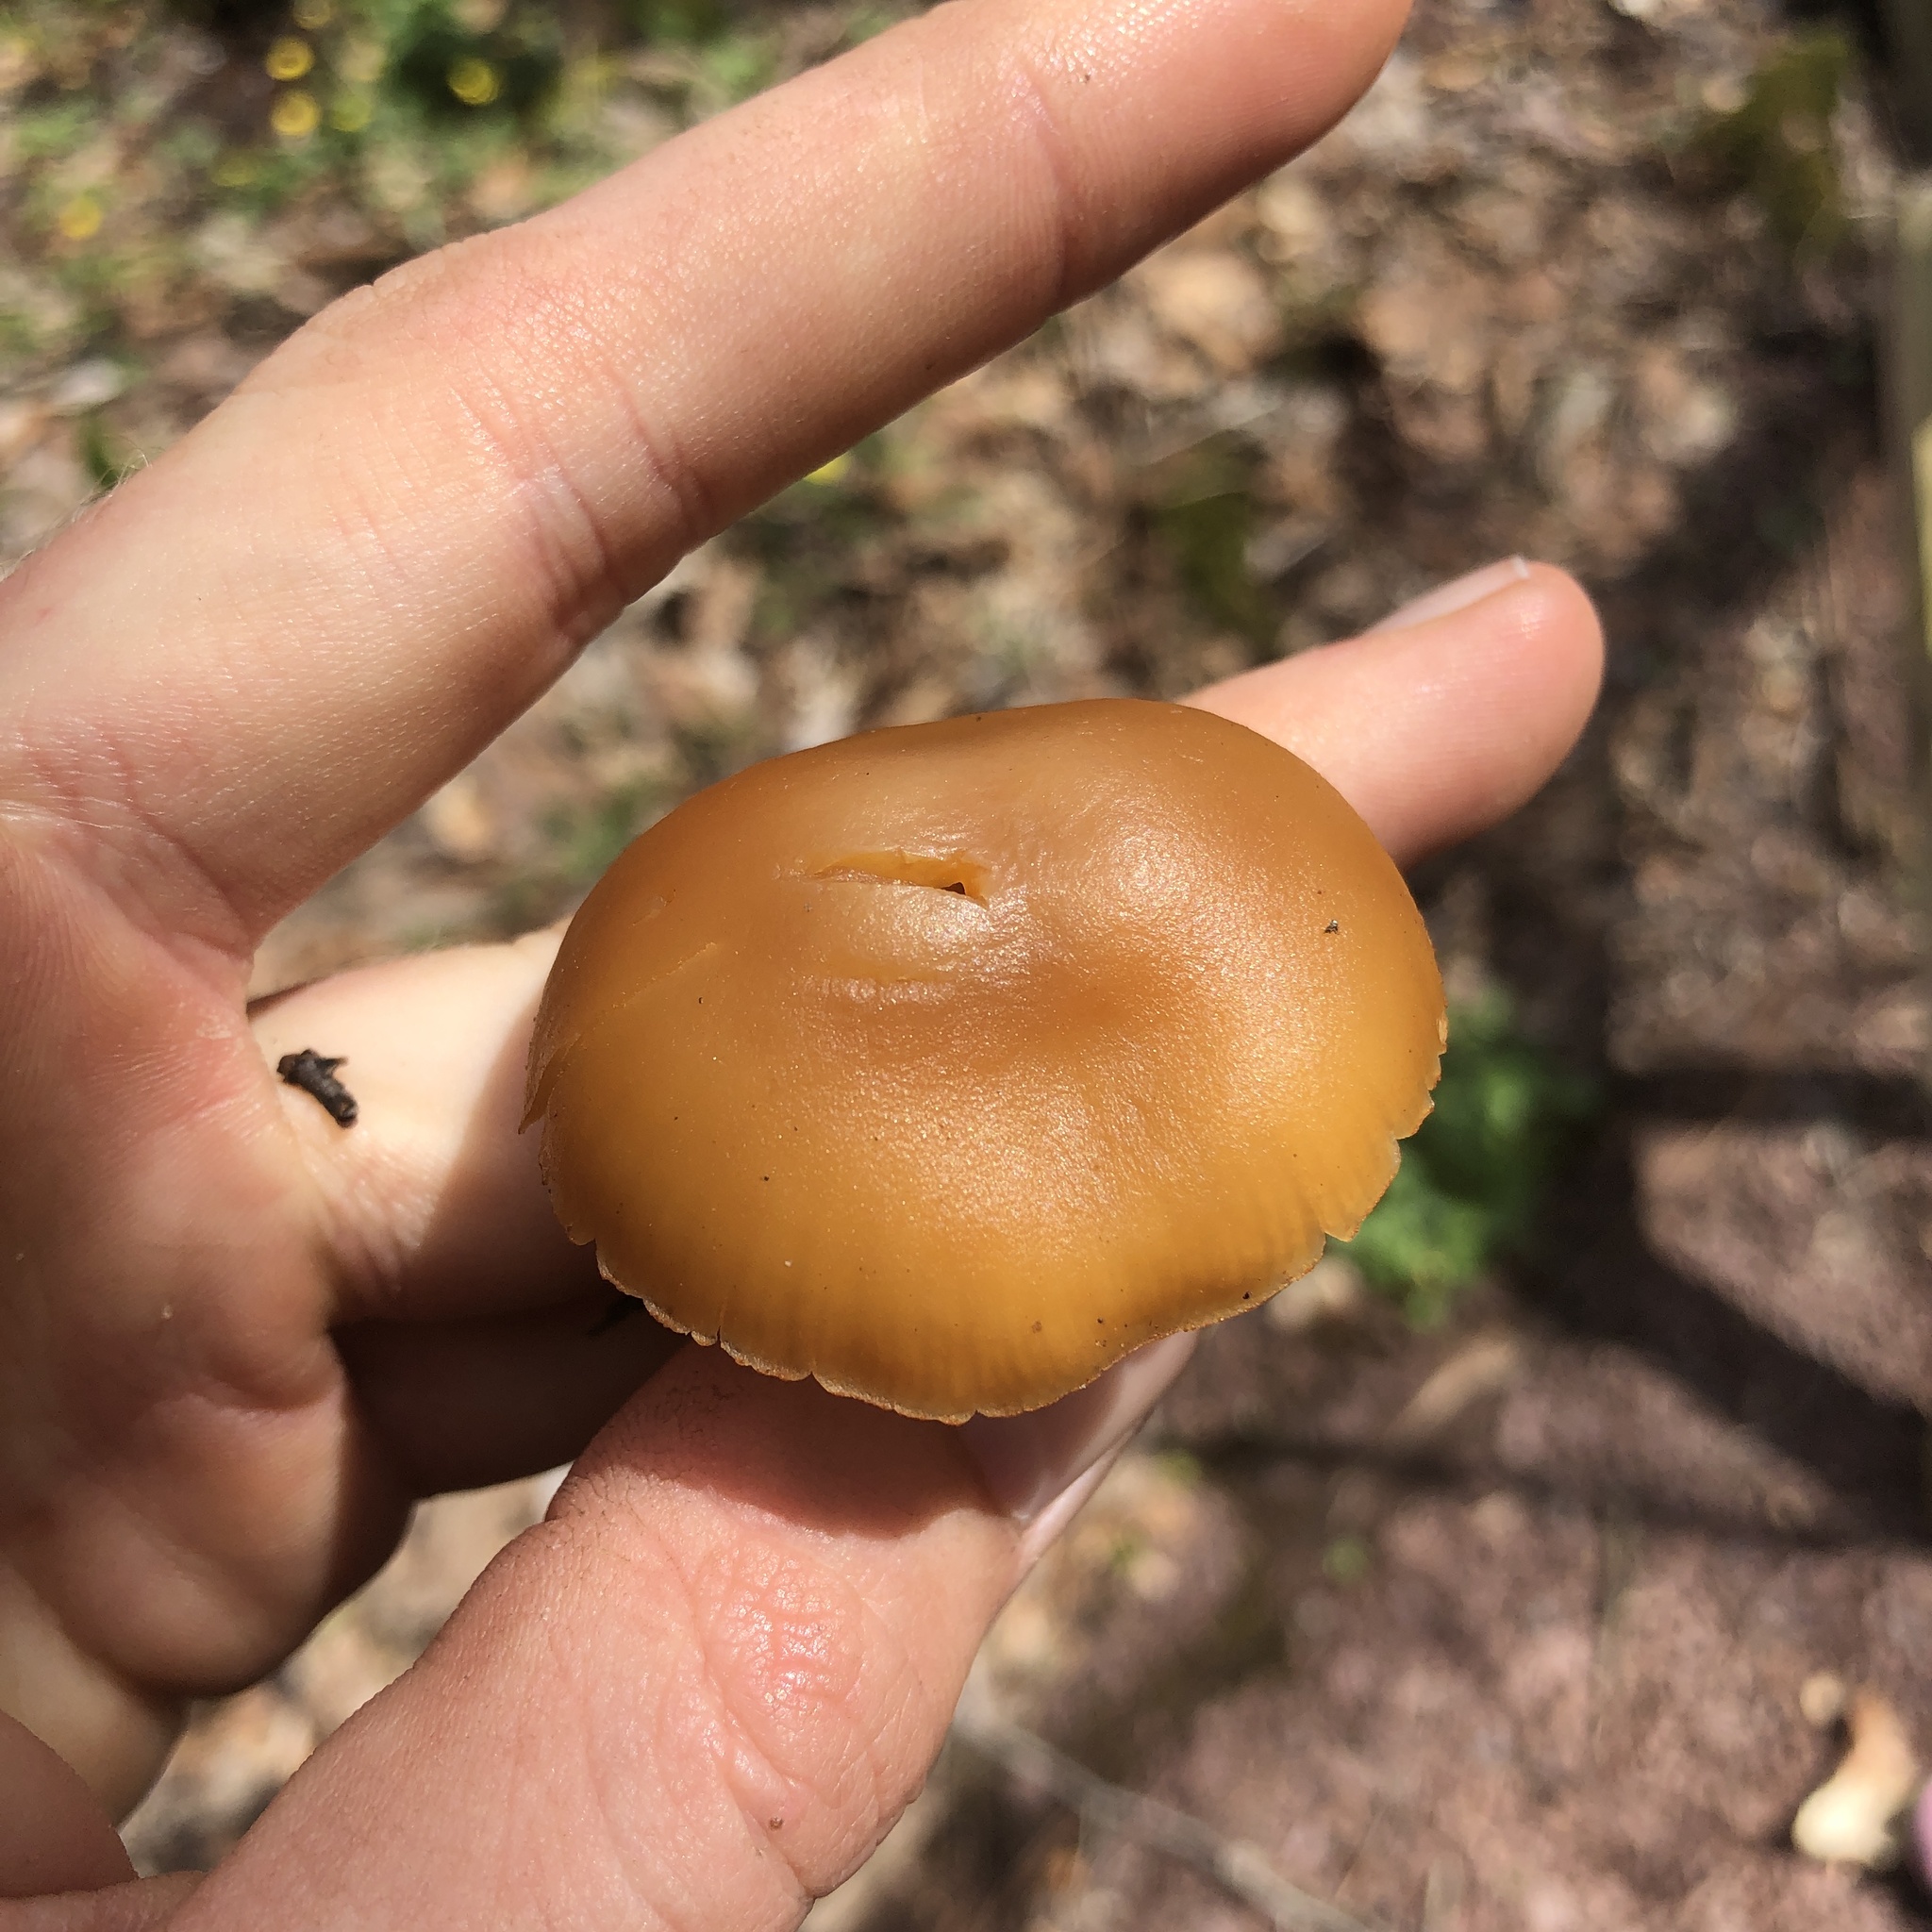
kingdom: Fungi
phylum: Basidiomycota
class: Agaricomycetes
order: Agaricales
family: Hymenogastraceae
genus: Galerina
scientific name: Galerina marginata
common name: Funeral bell
